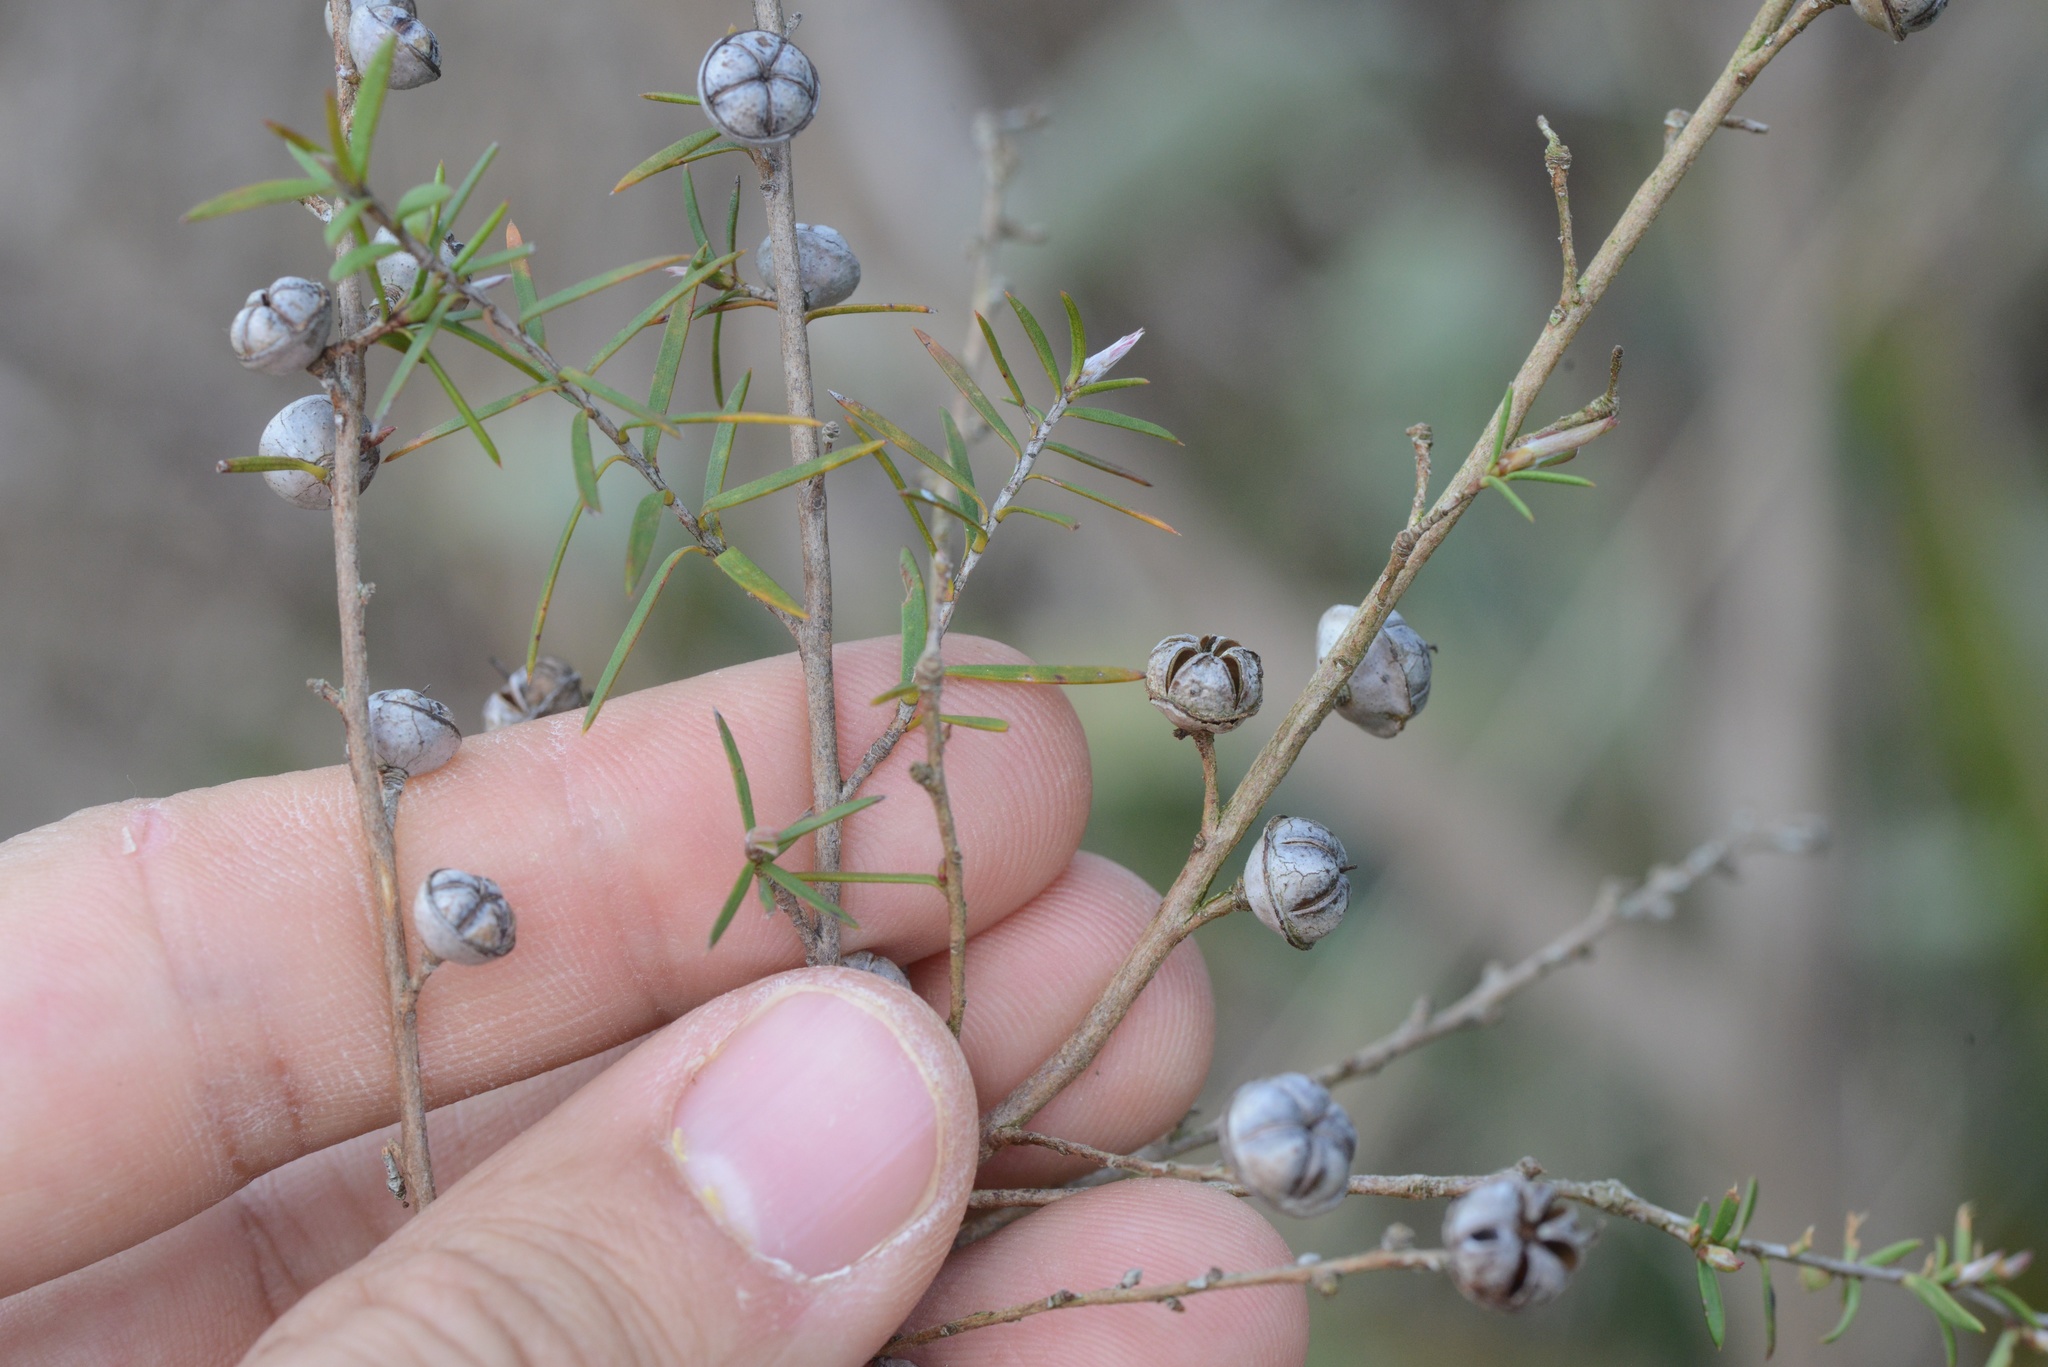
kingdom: Plantae
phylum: Tracheophyta
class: Magnoliopsida
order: Myrtales
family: Myrtaceae
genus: Leptospermum
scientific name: Leptospermum scoparium
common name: Broom tea-tree
